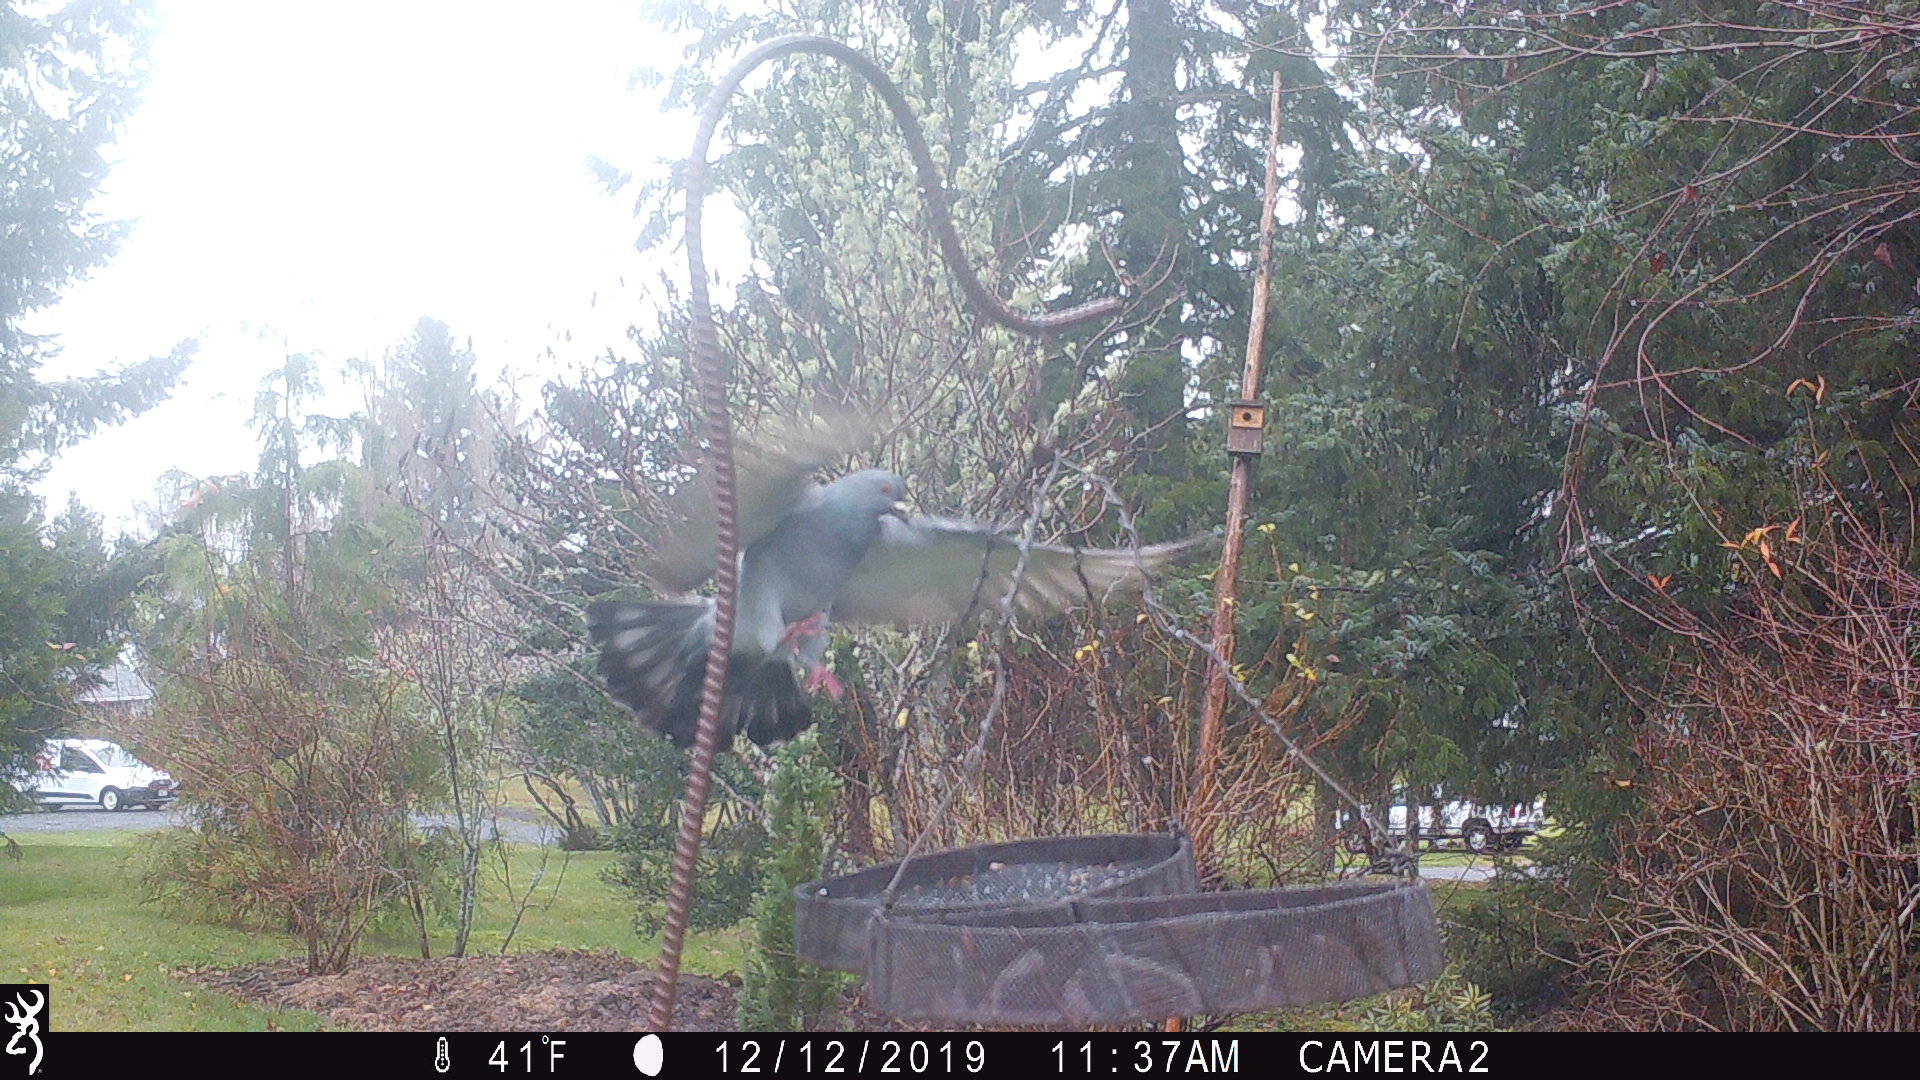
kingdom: Animalia
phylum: Chordata
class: Aves
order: Columbiformes
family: Columbidae
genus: Columba
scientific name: Columba livia
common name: Rock pigeon
